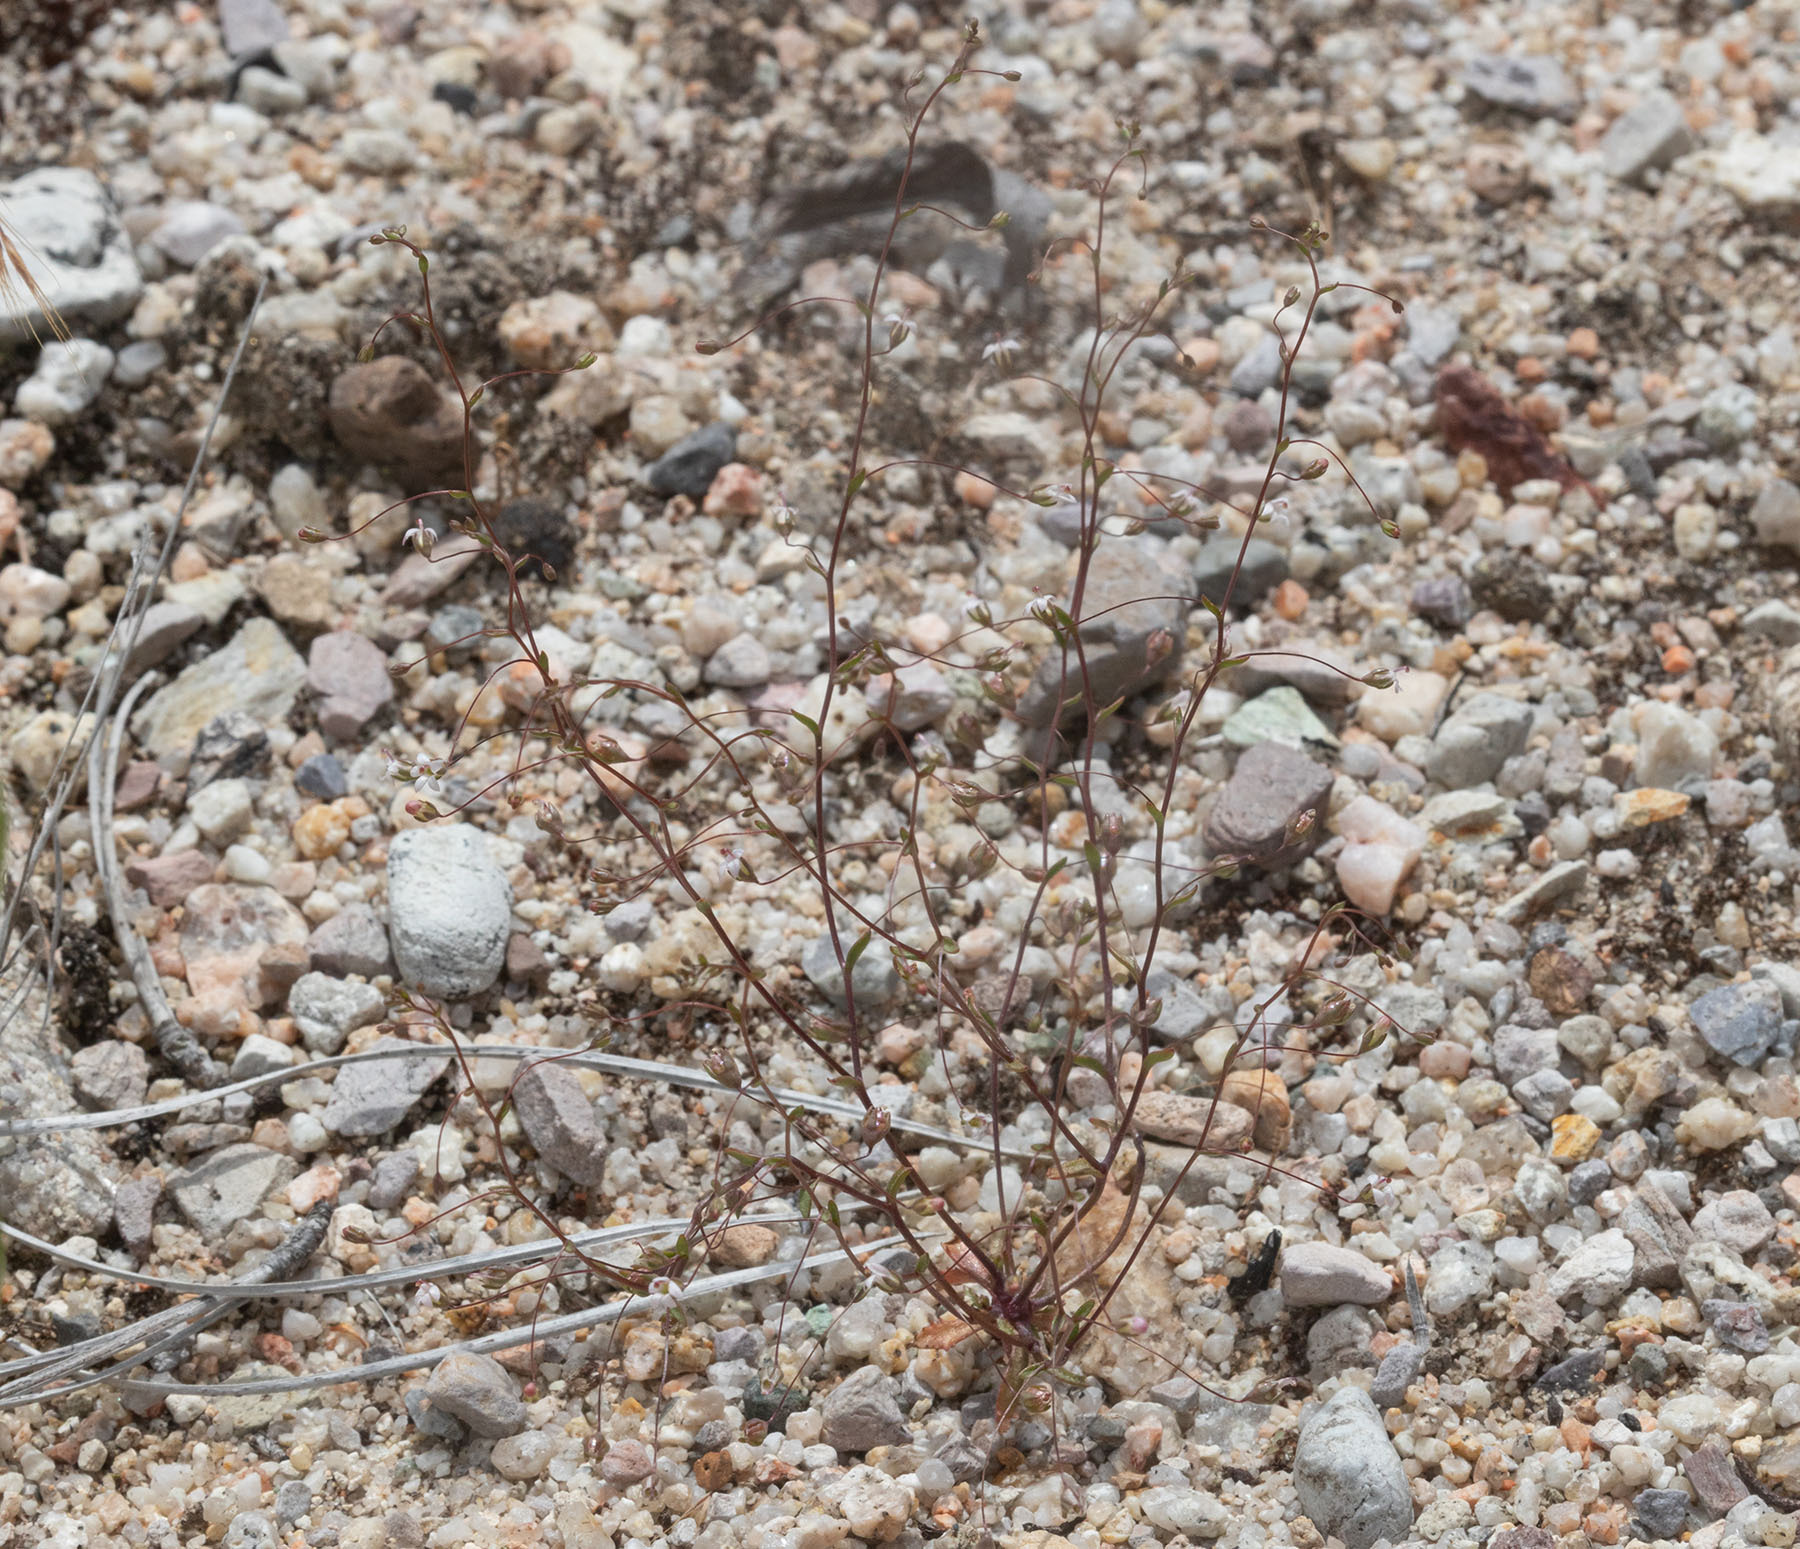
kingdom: Plantae
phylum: Tracheophyta
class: Magnoliopsida
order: Asterales
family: Campanulaceae
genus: Nemacladus
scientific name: Nemacladus secundiflorus
